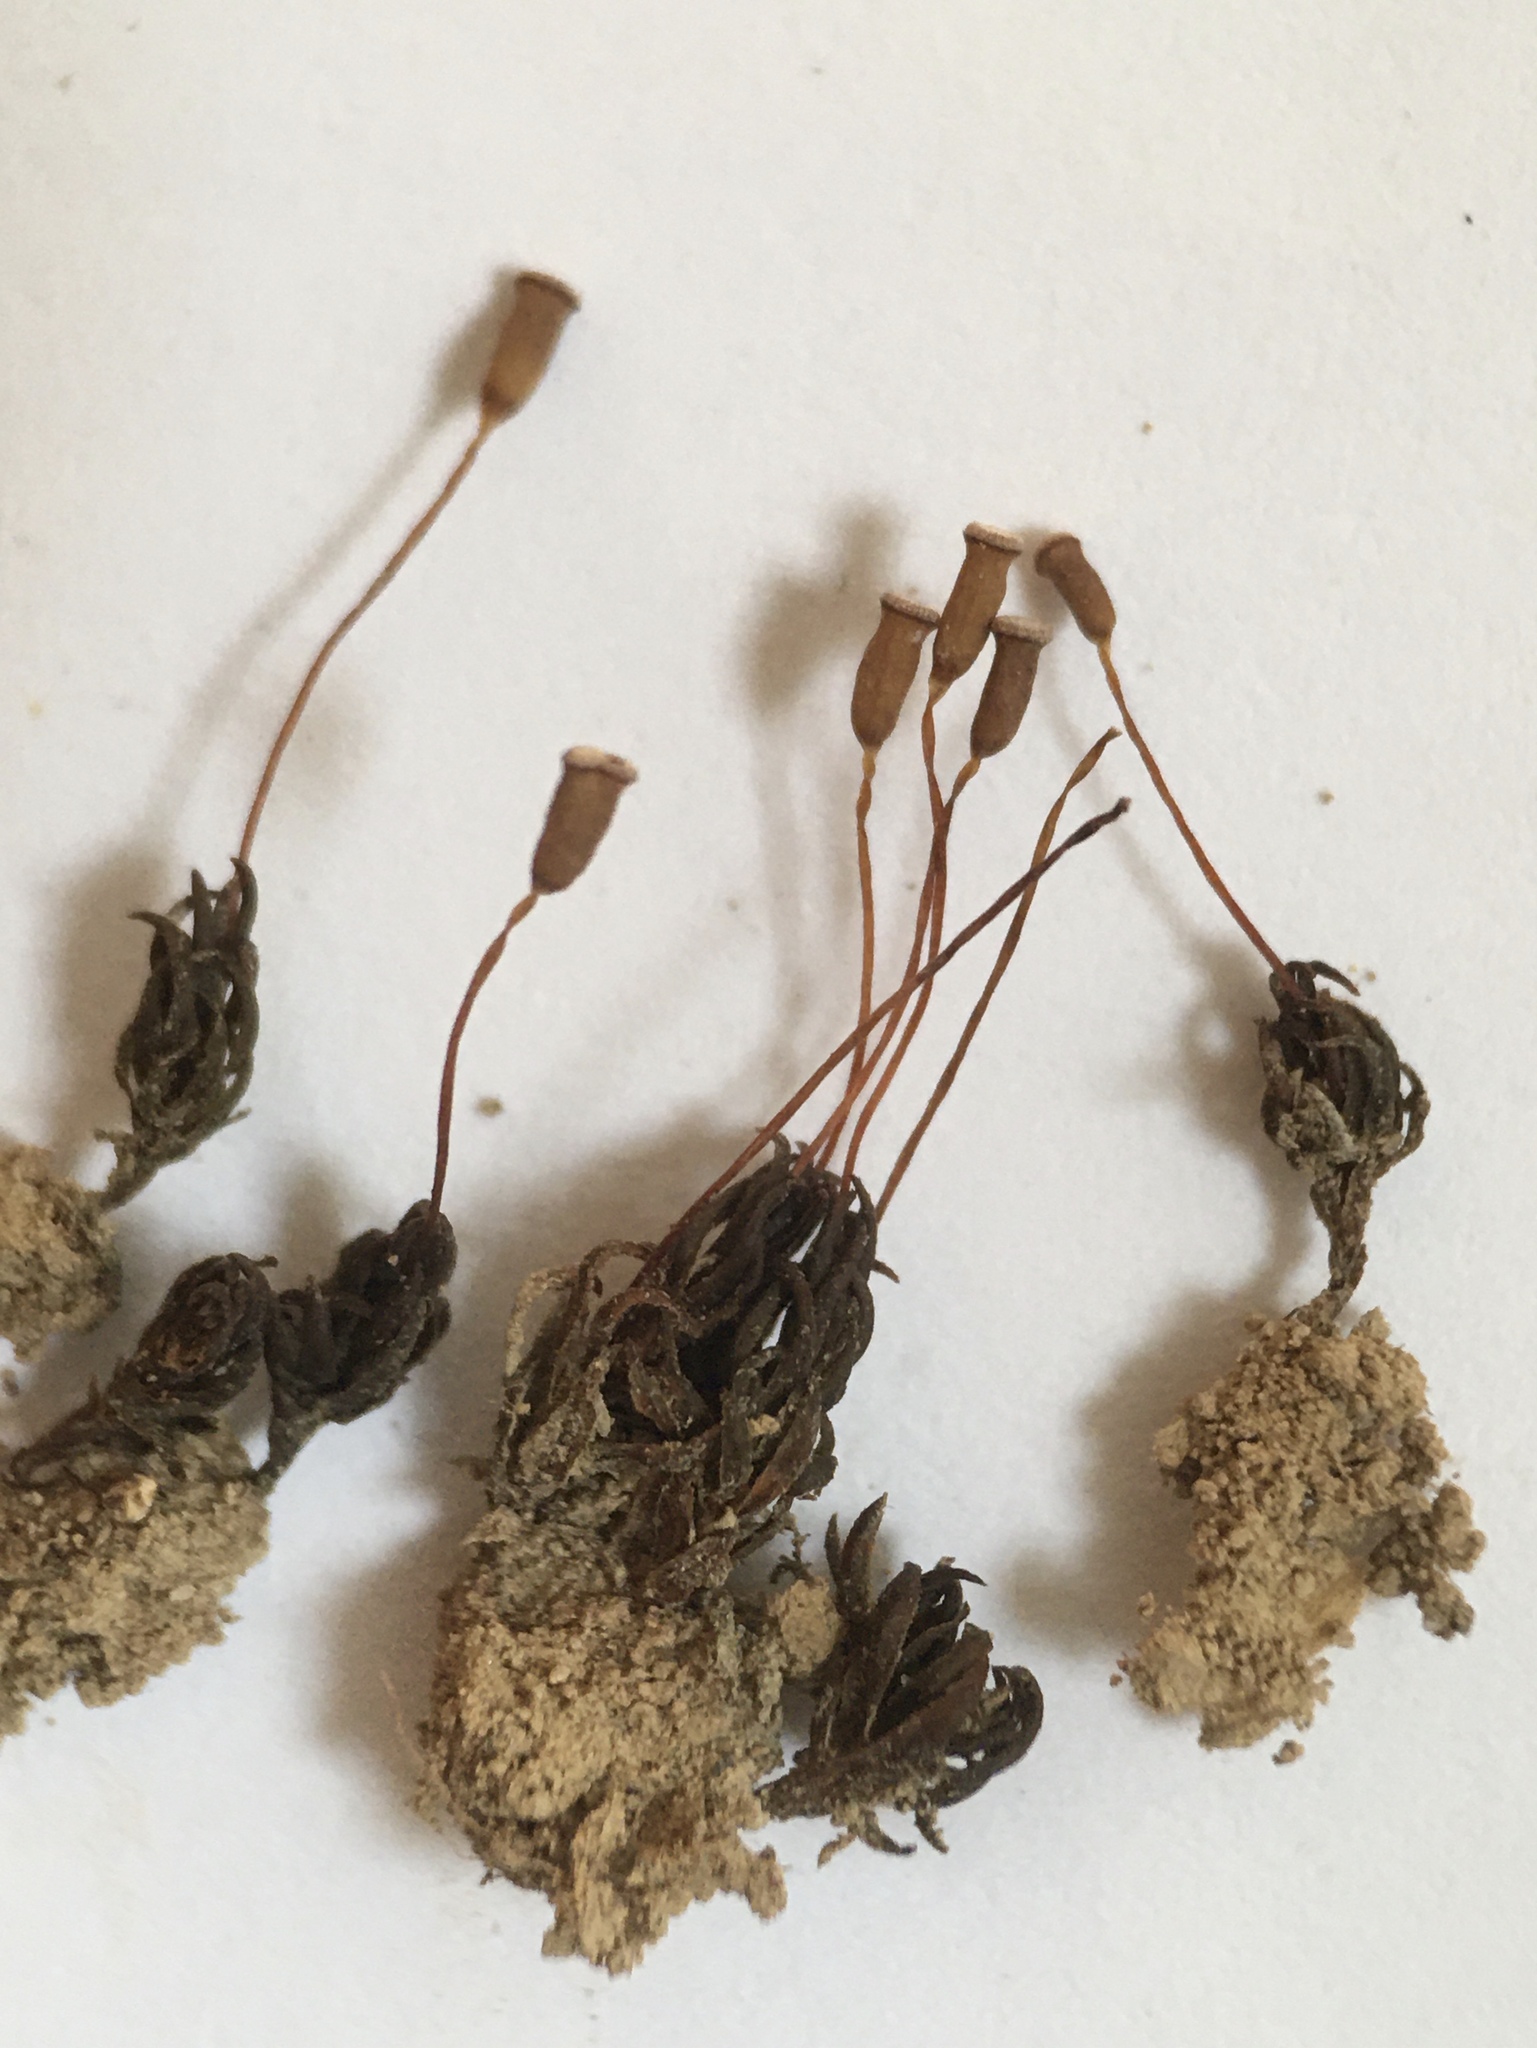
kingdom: Plantae
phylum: Bryophyta
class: Polytrichopsida
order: Polytrichales
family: Polytrichaceae
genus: Pogonatum
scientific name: Pogonatum aloides
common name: Aloe haircap
